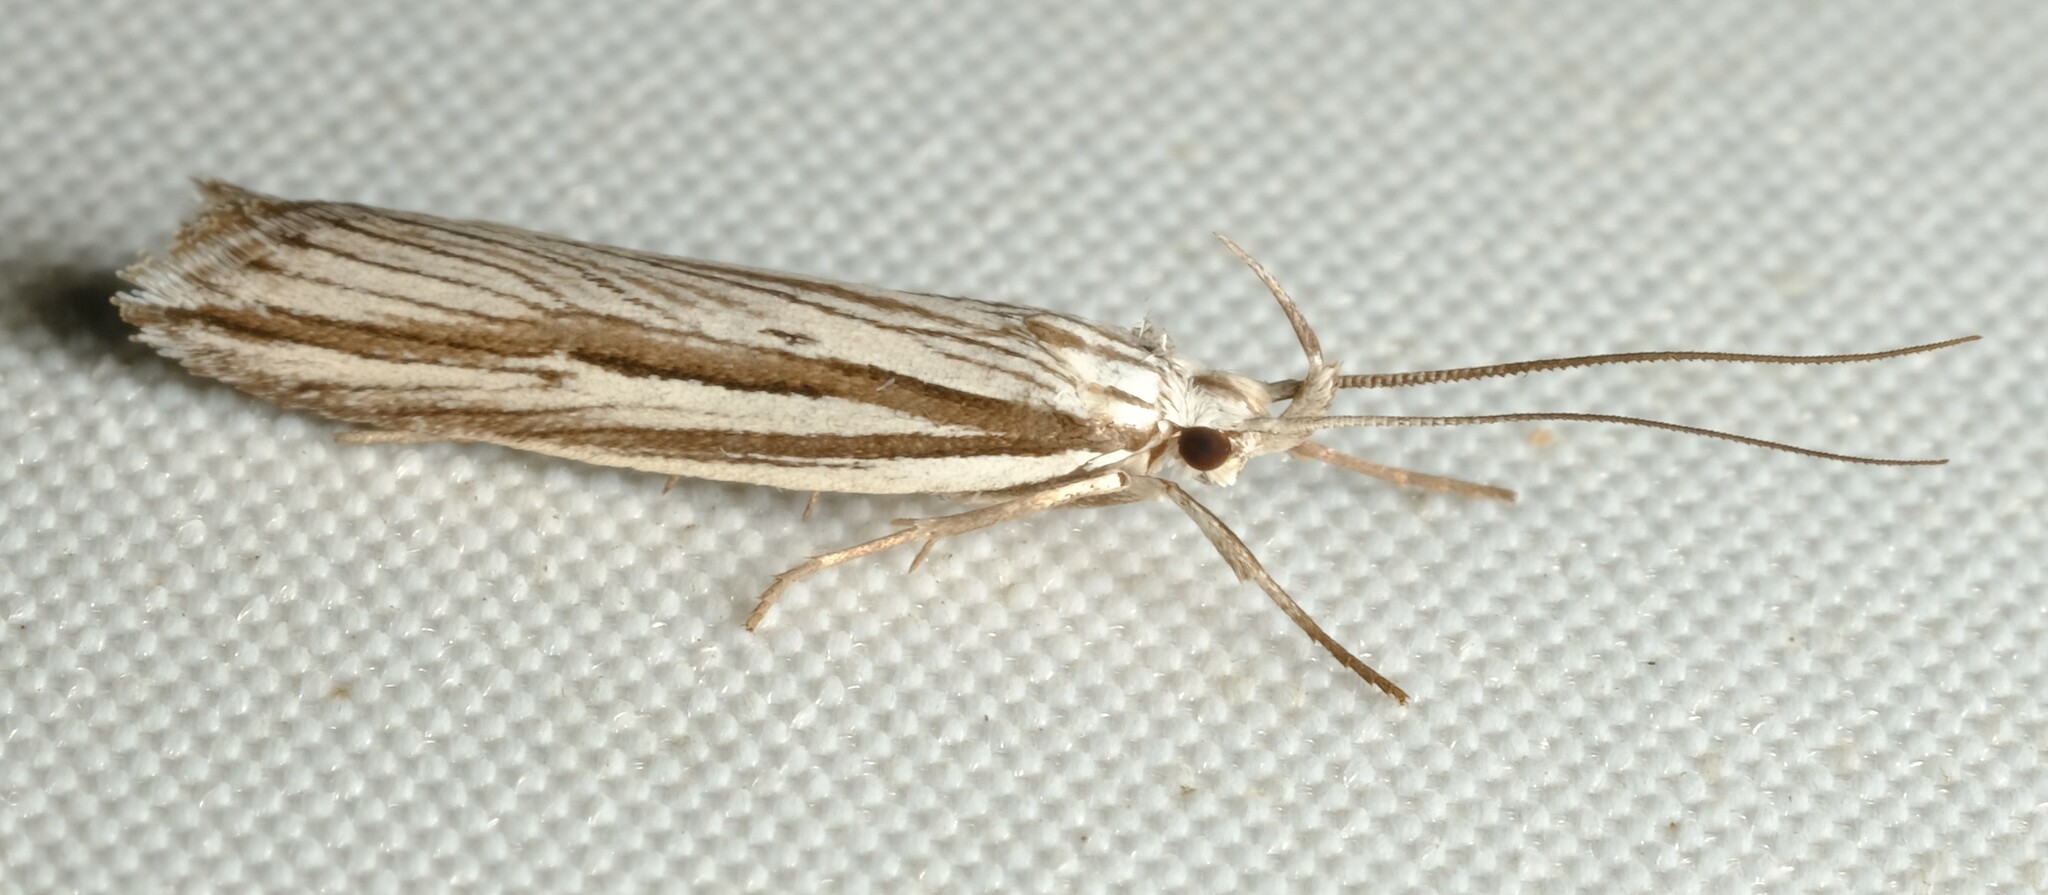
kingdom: Animalia
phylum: Arthropoda
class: Insecta
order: Lepidoptera
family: Xyloryctidae
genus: Bida
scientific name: Bida radiosella
